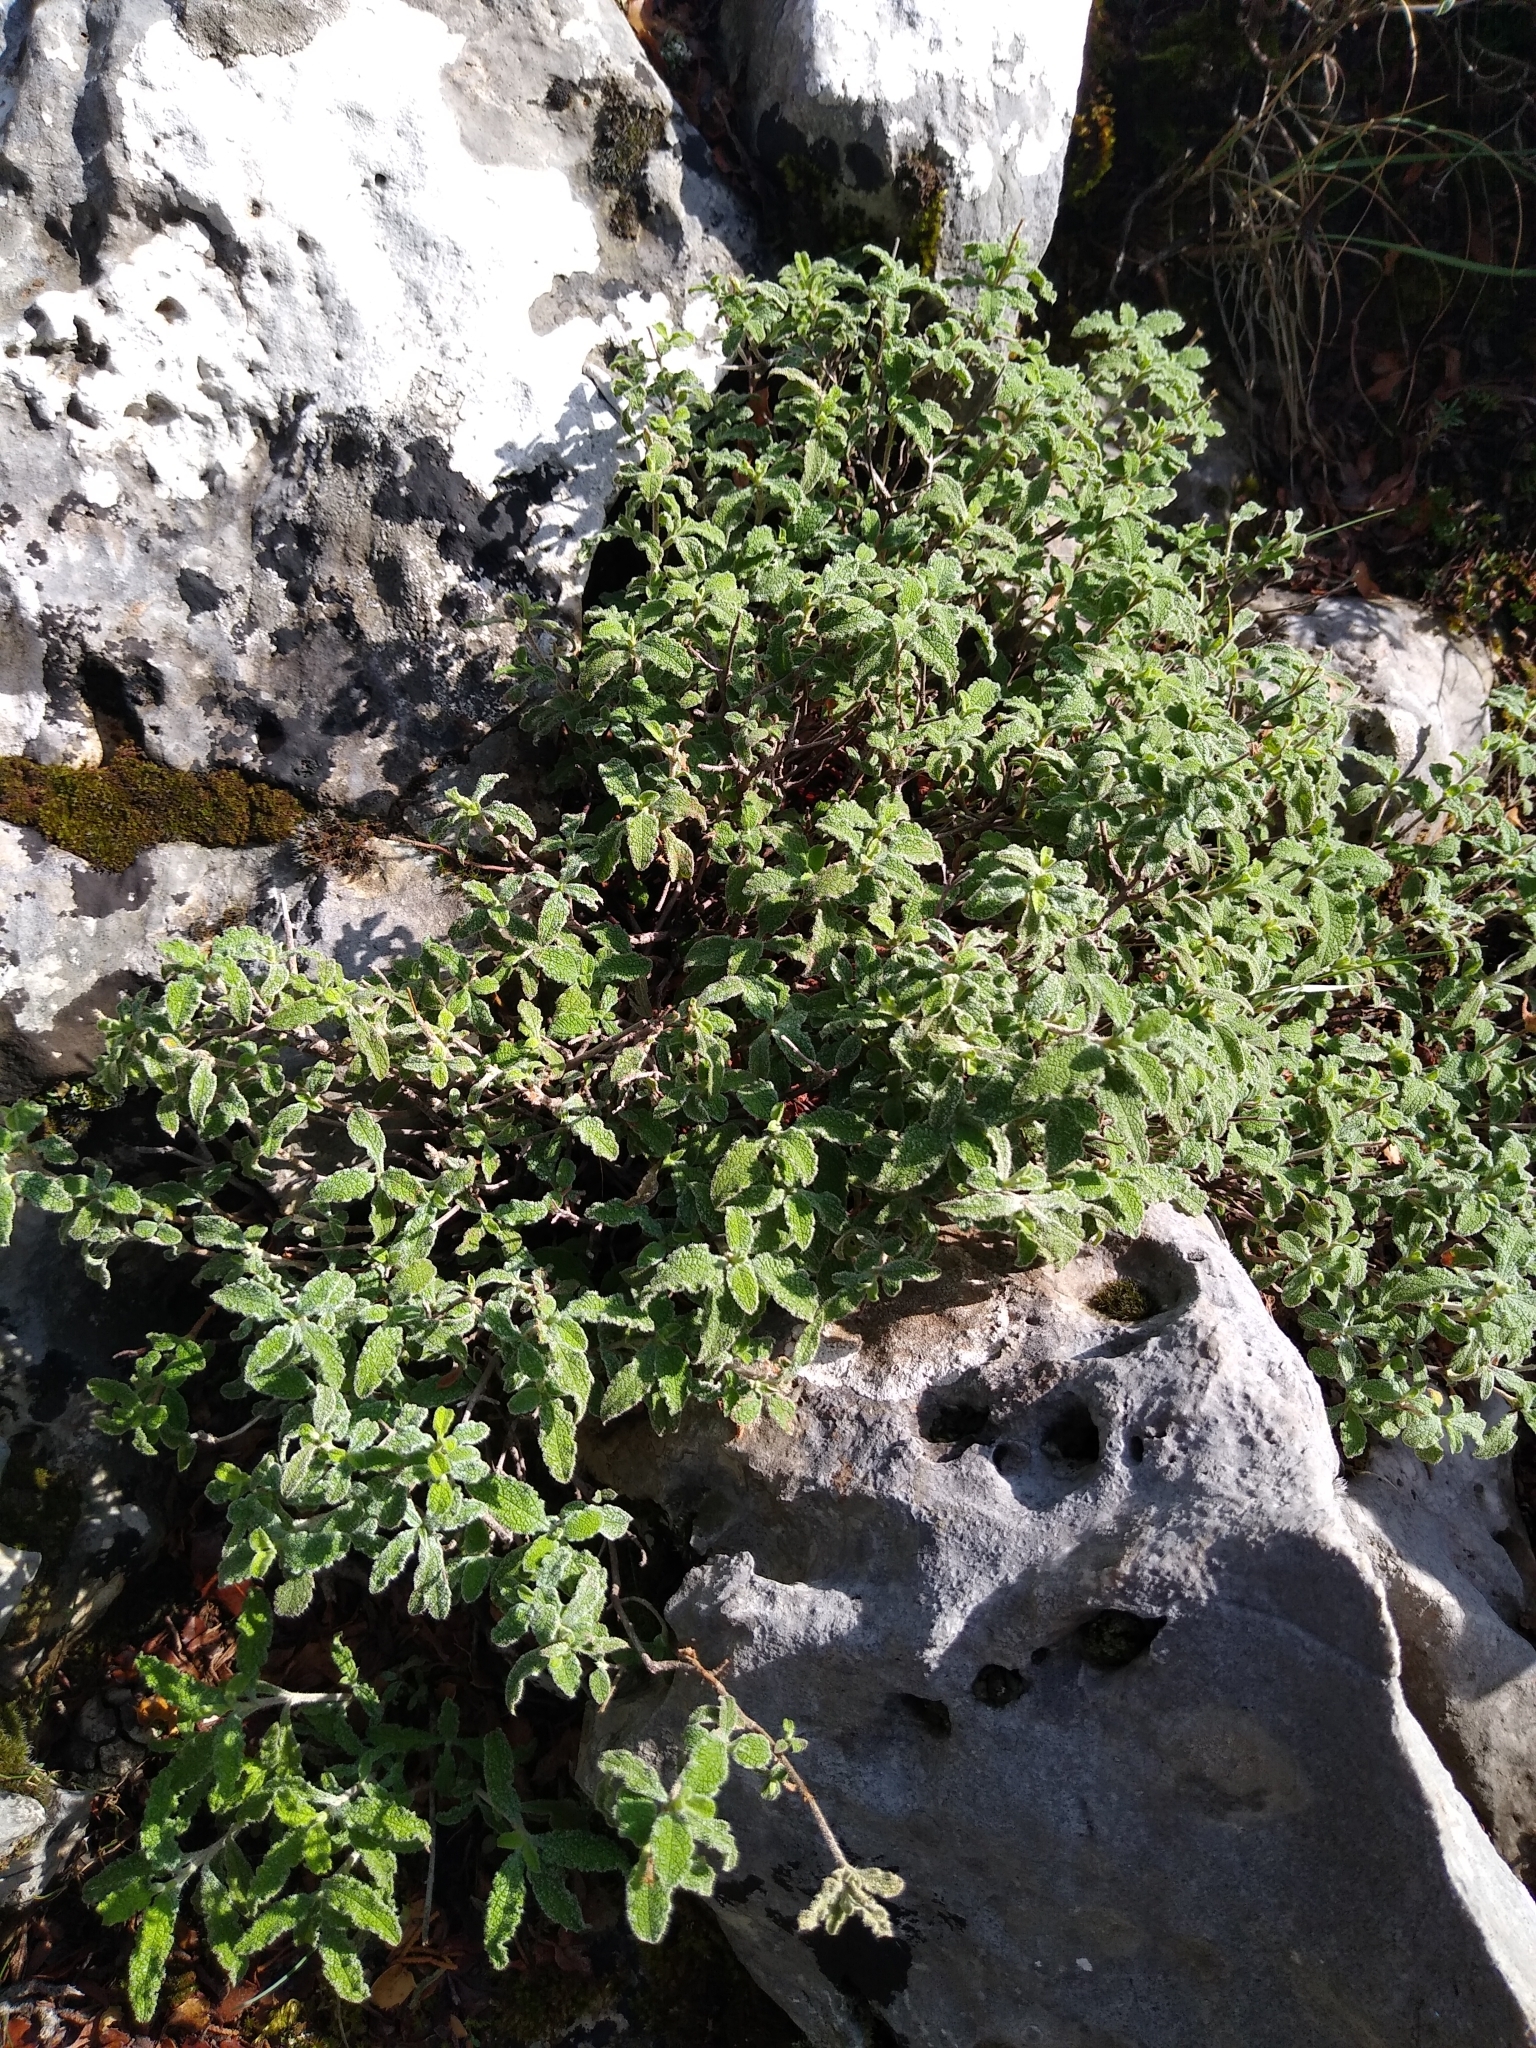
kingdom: Plantae
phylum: Tracheophyta
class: Magnoliopsida
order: Malvales
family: Cistaceae
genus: Cistus
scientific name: Cistus creticus
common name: Cretan rockrose
